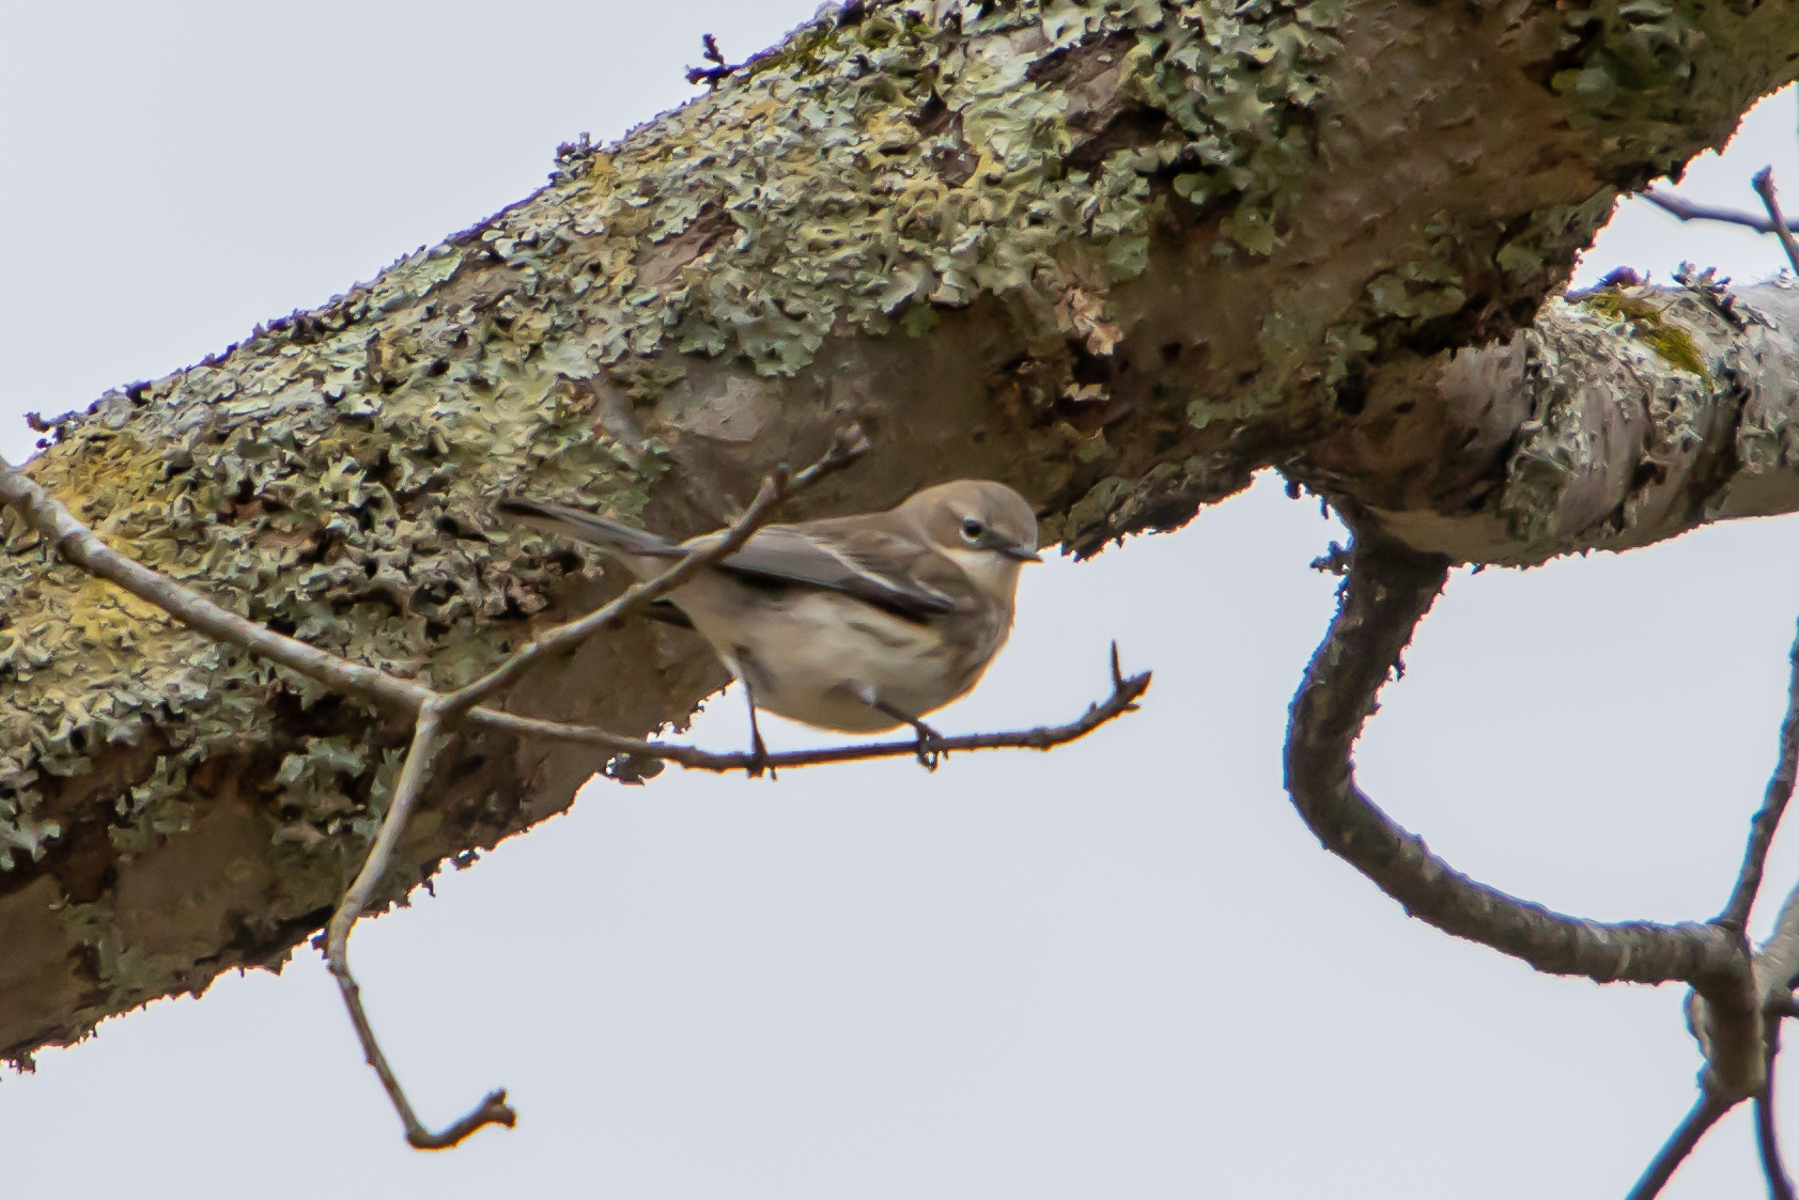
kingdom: Animalia
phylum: Chordata
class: Aves
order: Passeriformes
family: Parulidae
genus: Setophaga
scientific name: Setophaga coronata
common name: Myrtle warbler
